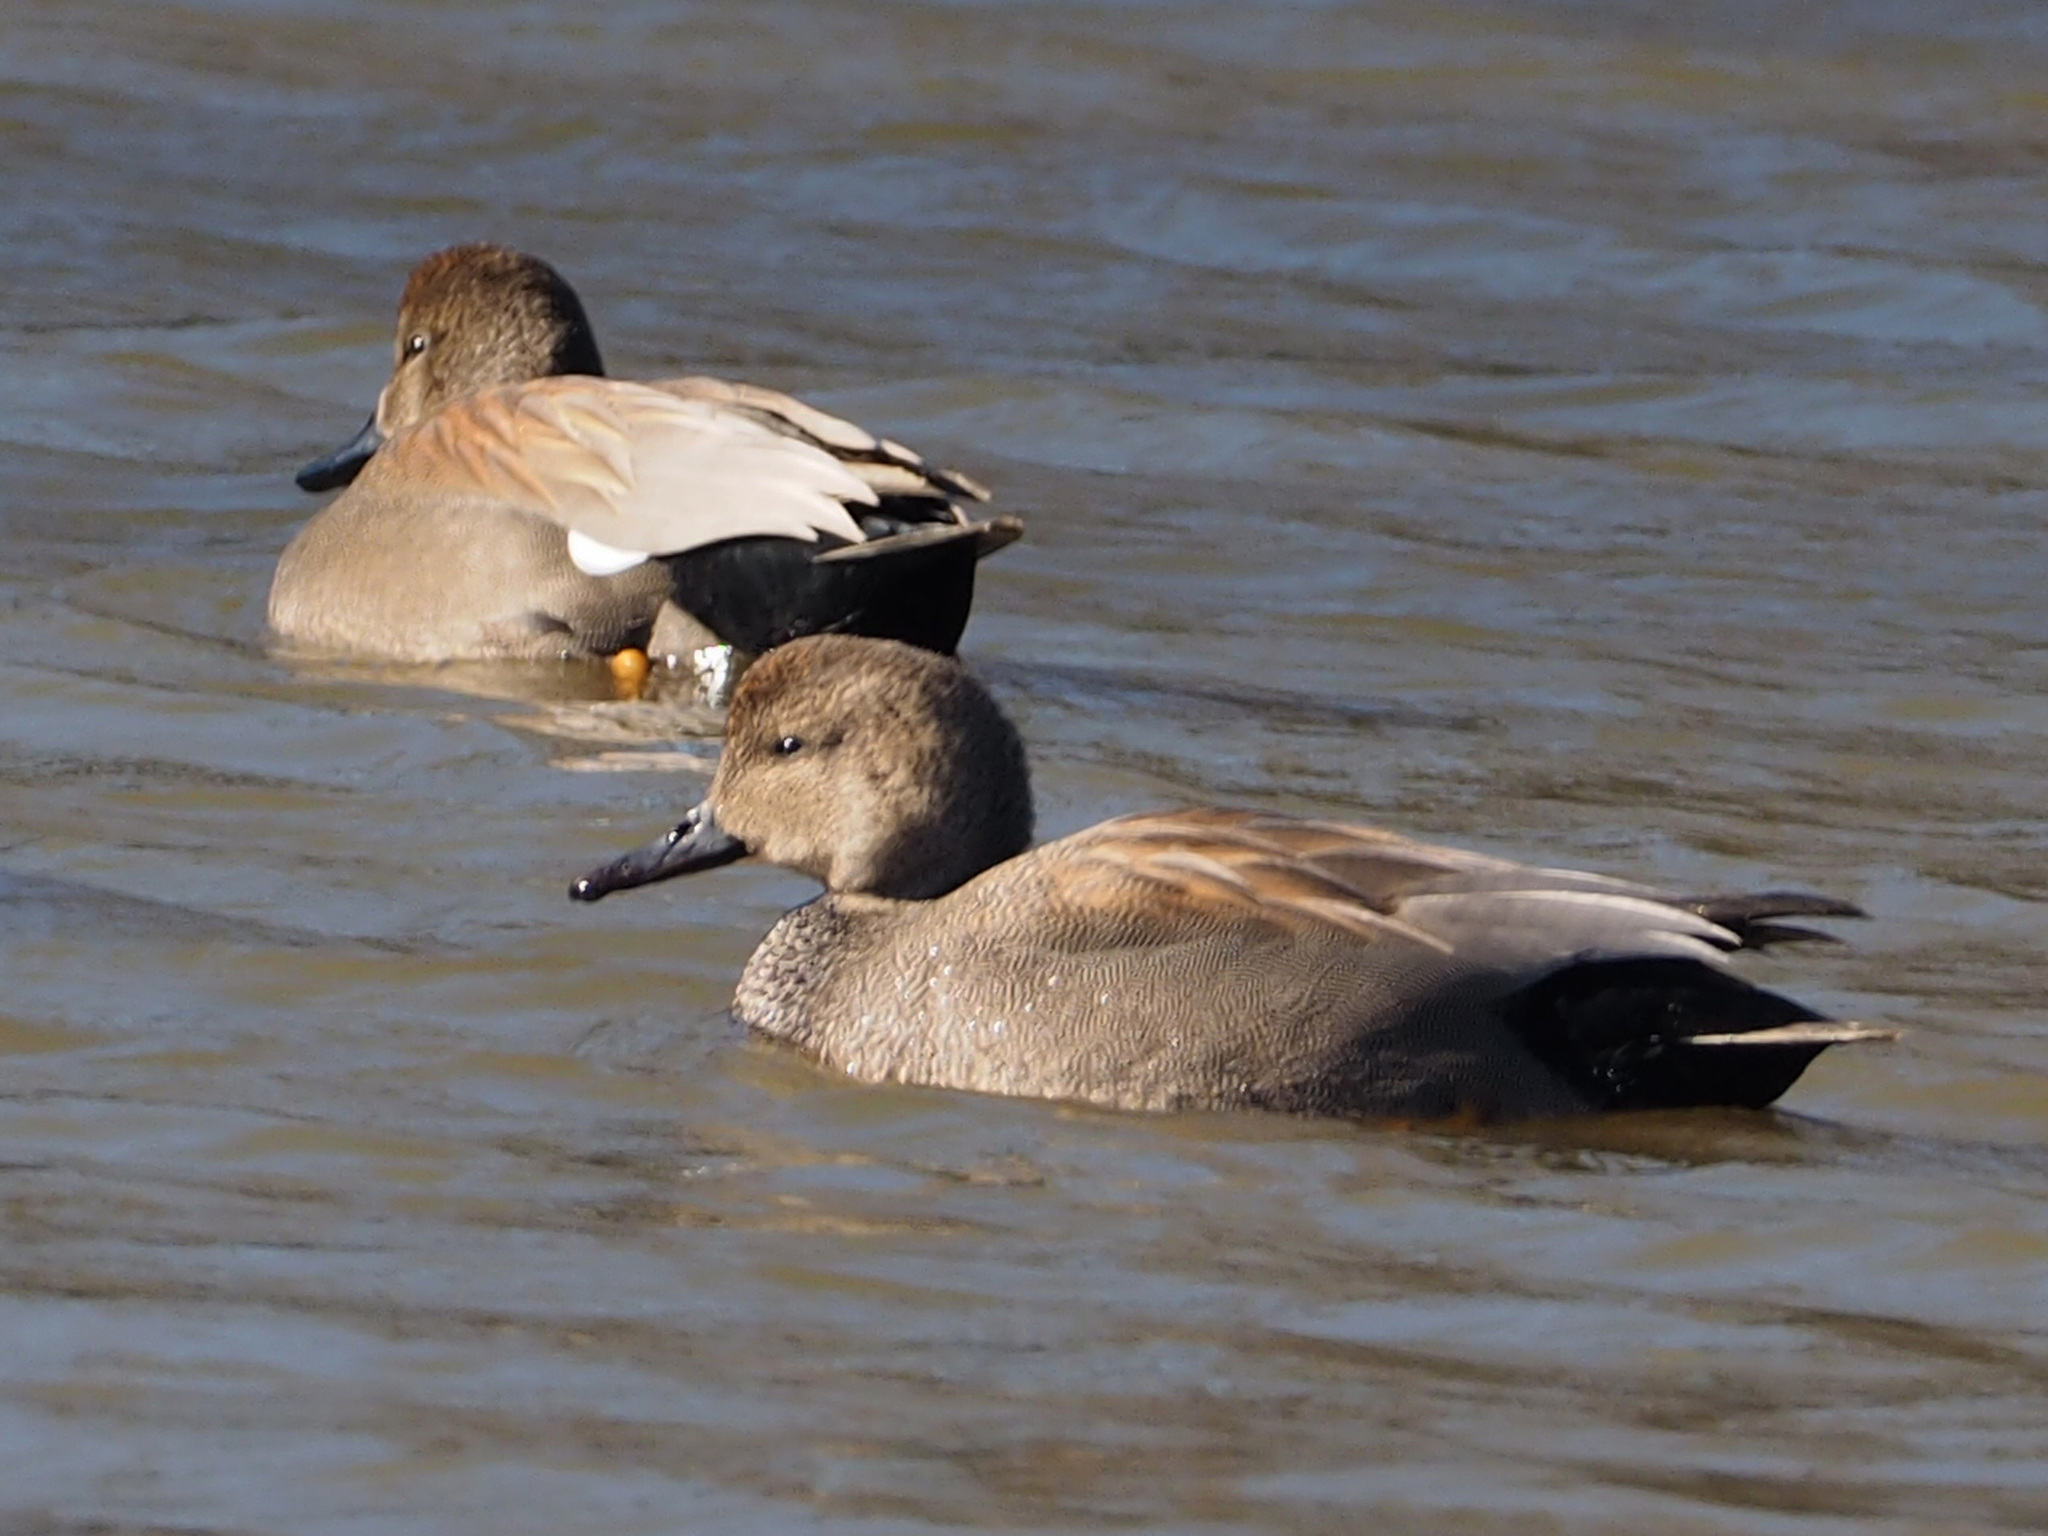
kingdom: Animalia
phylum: Chordata
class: Aves
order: Anseriformes
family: Anatidae
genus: Mareca
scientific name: Mareca strepera
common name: Gadwall
